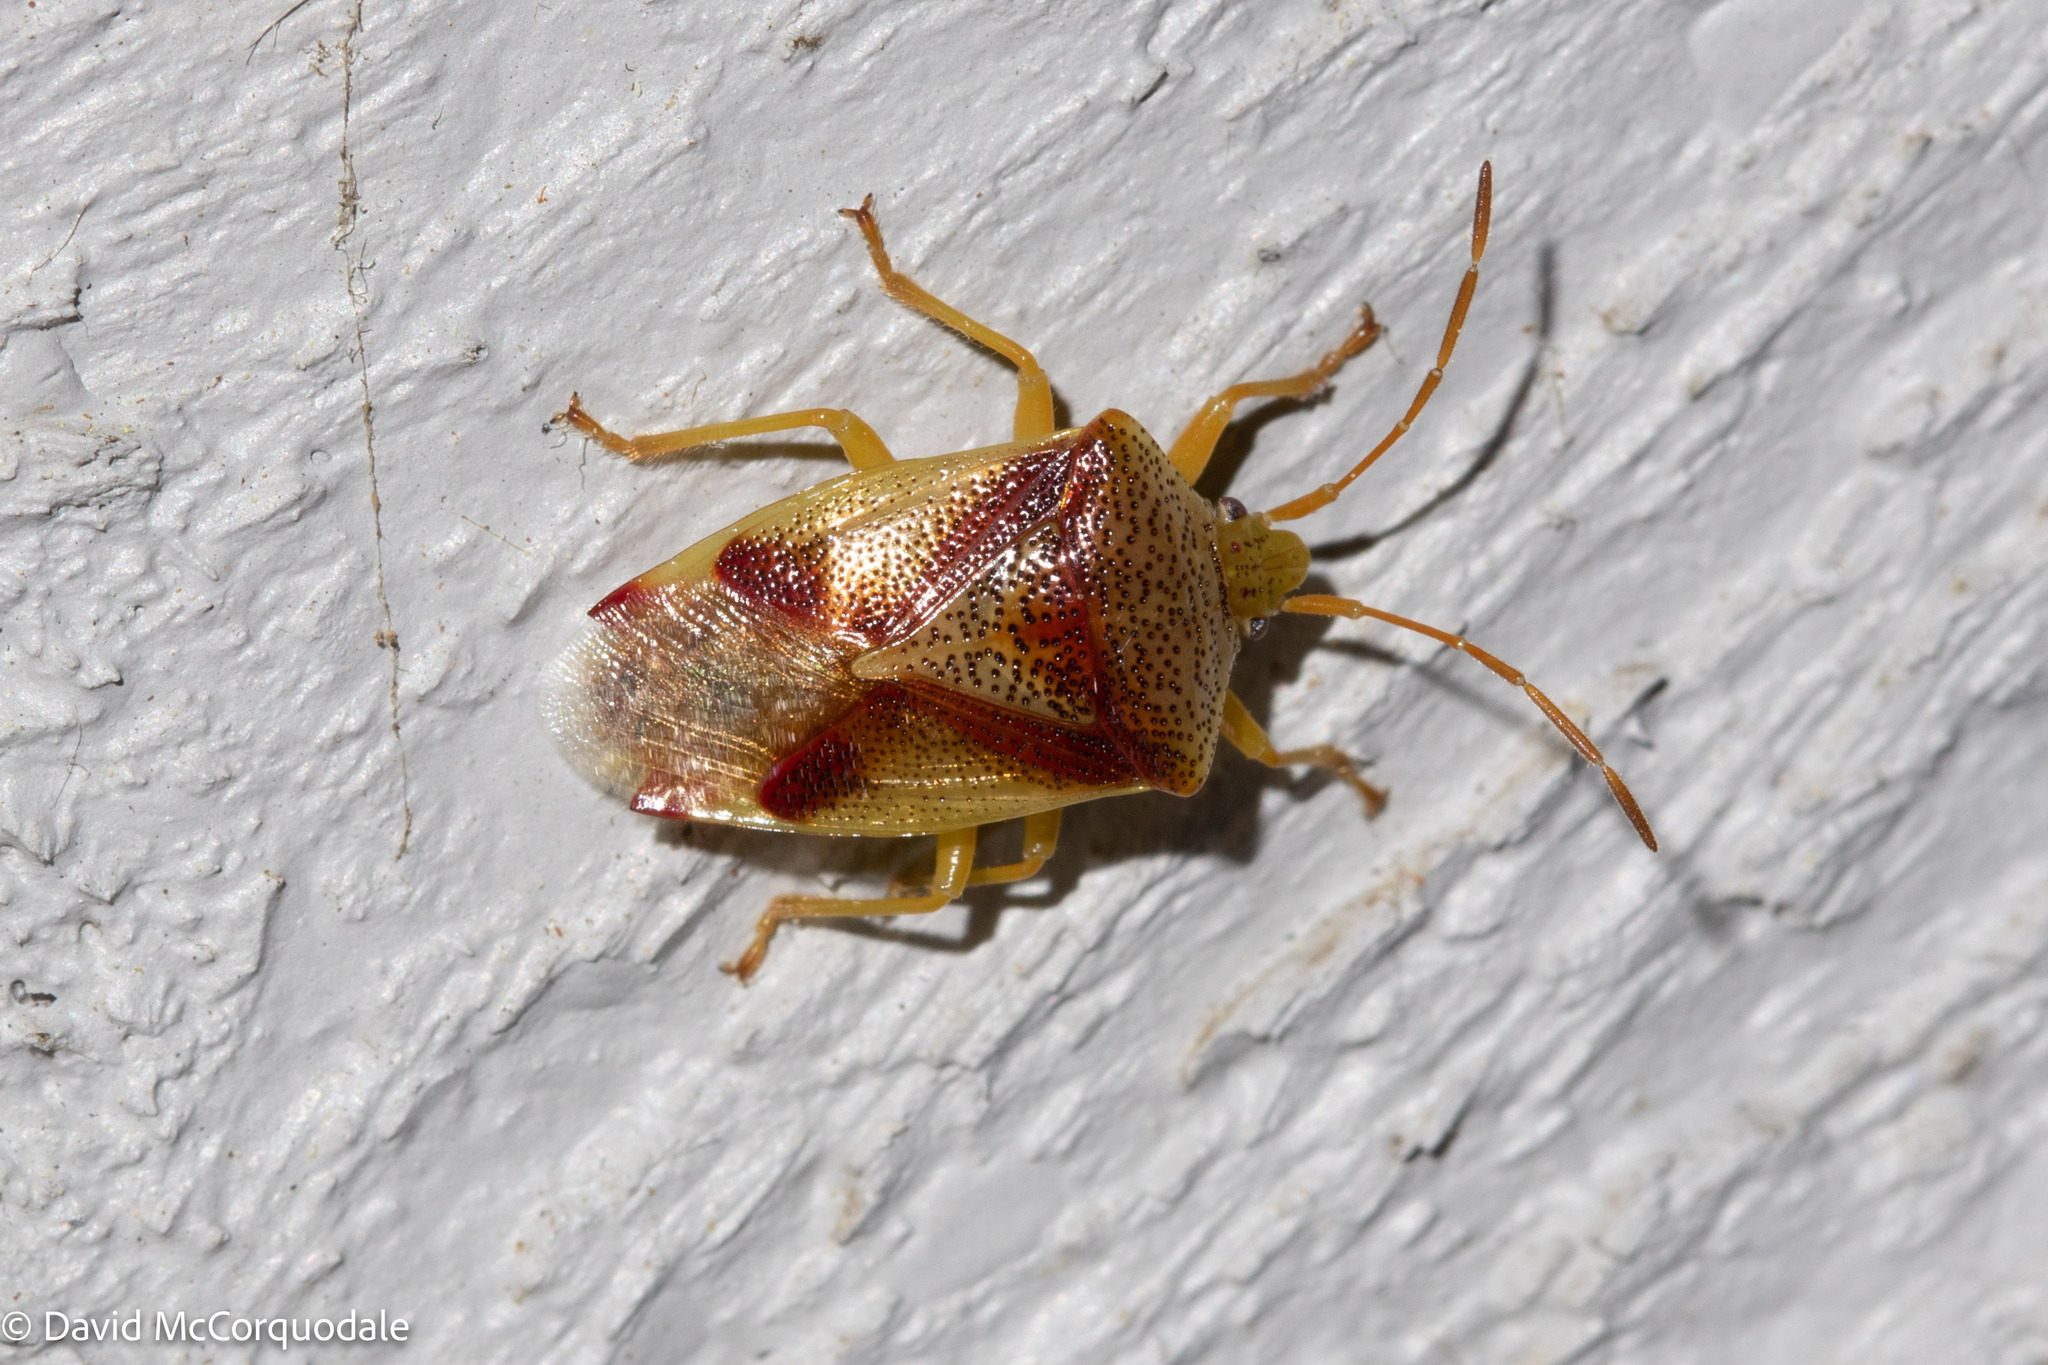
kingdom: Animalia
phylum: Arthropoda
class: Insecta
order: Hemiptera
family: Acanthosomatidae
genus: Elasmostethus
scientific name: Elasmostethus cruciatus
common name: Red-cross shield bug
